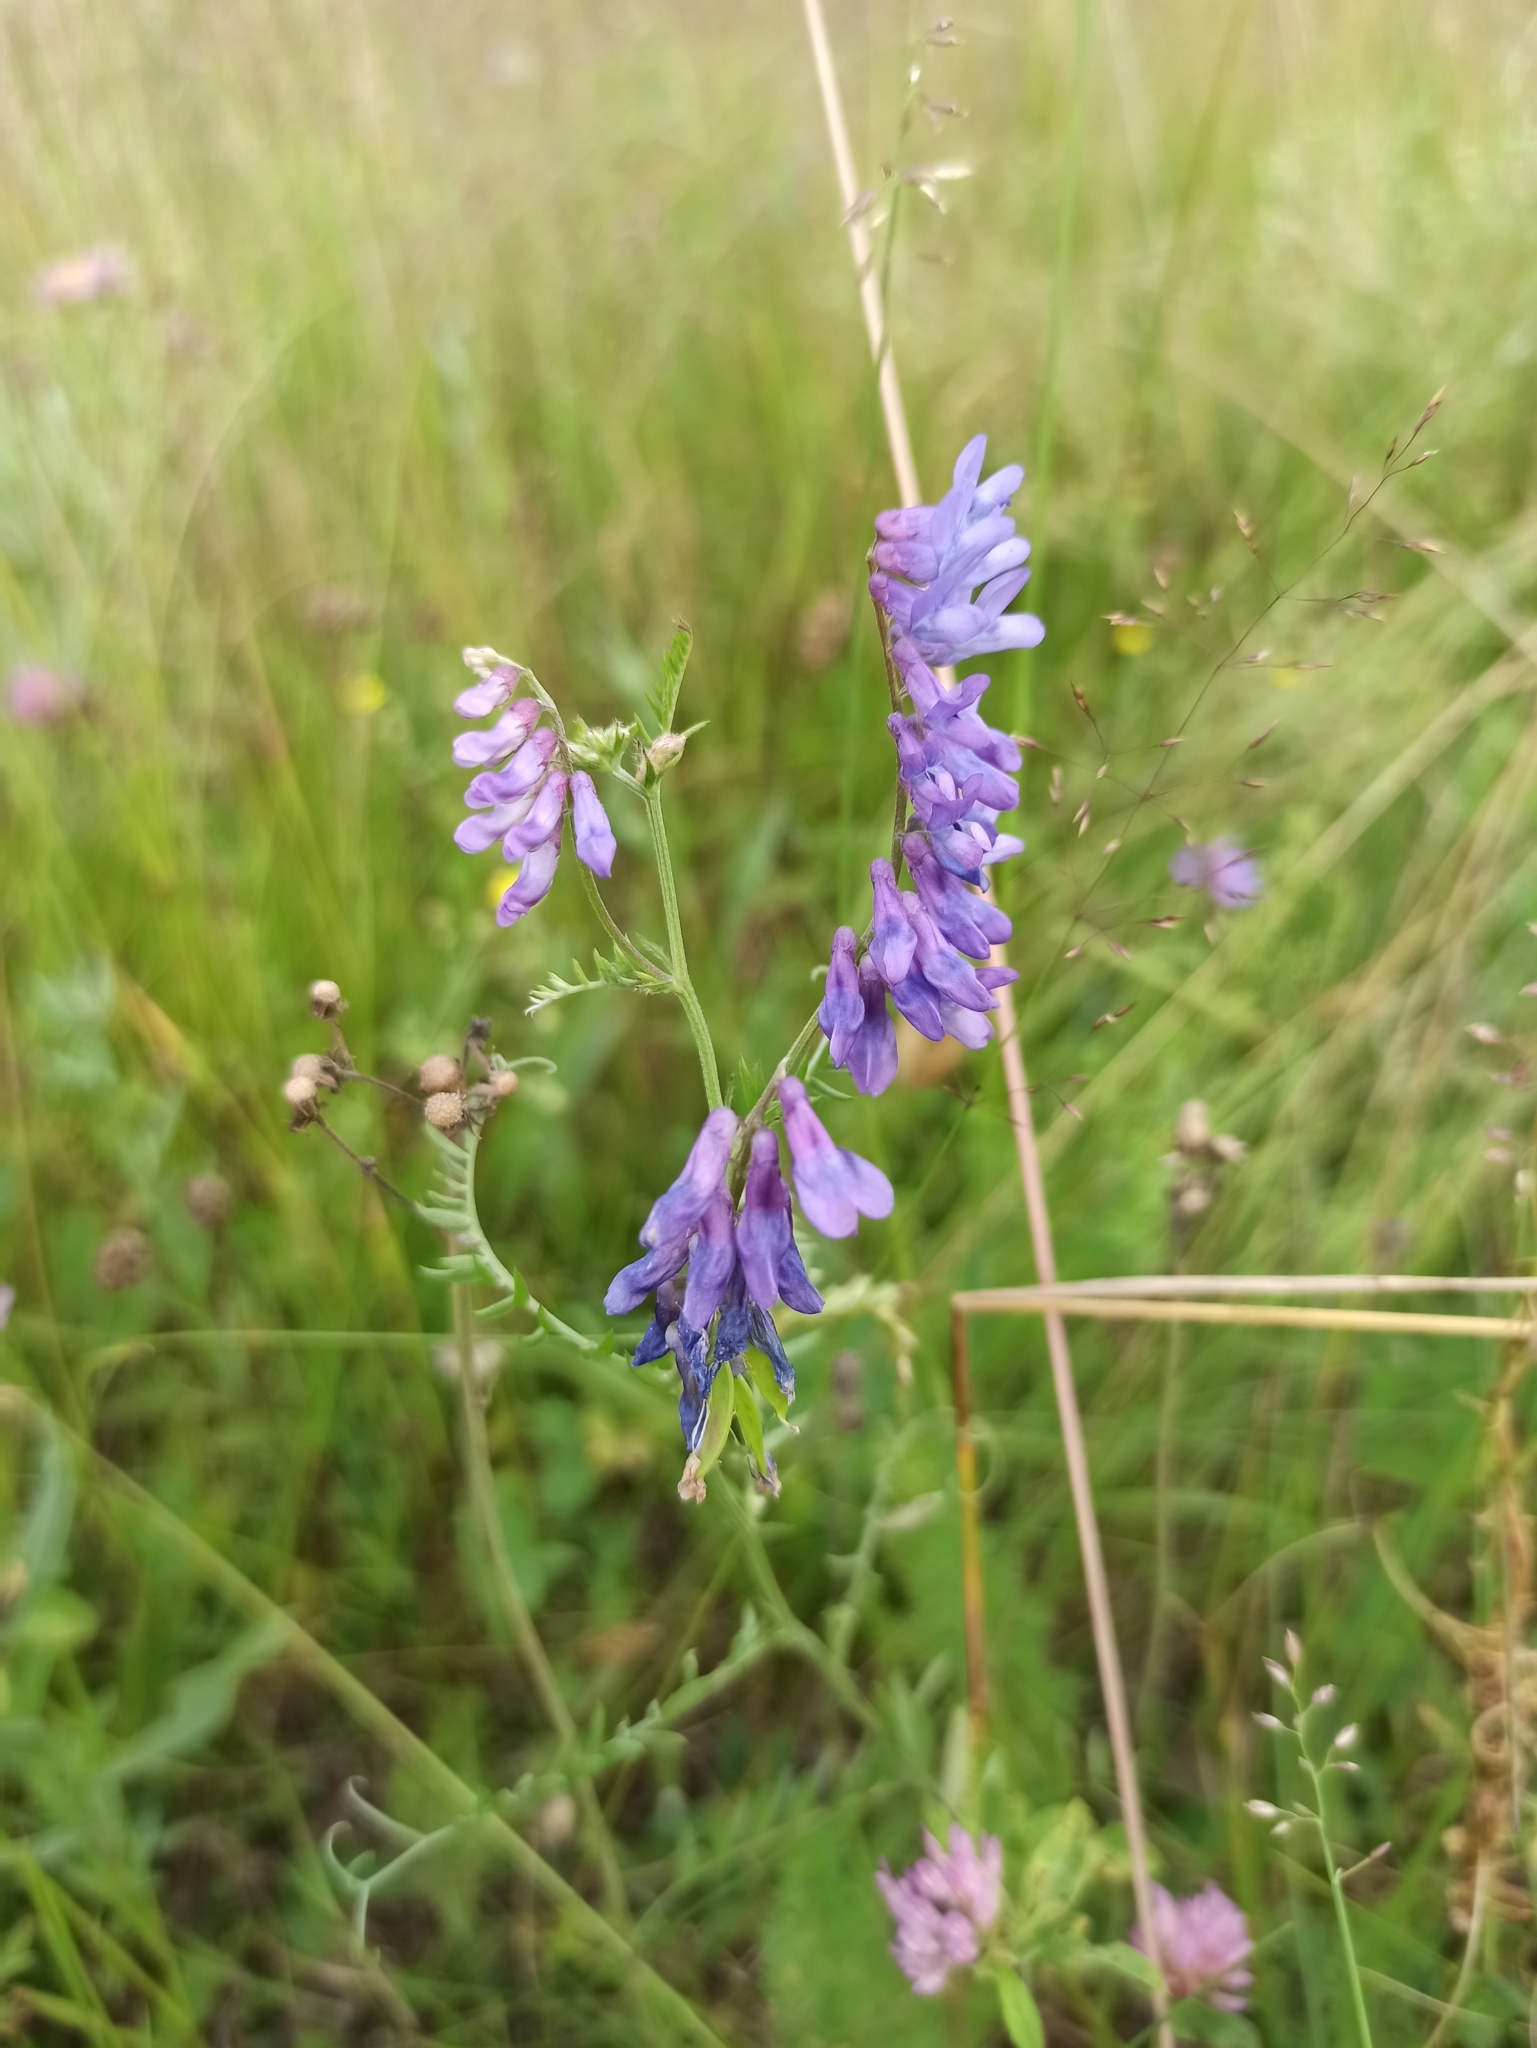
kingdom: Plantae
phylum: Tracheophyta
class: Magnoliopsida
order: Fabales
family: Fabaceae
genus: Vicia
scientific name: Vicia cracca
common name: Bird vetch
